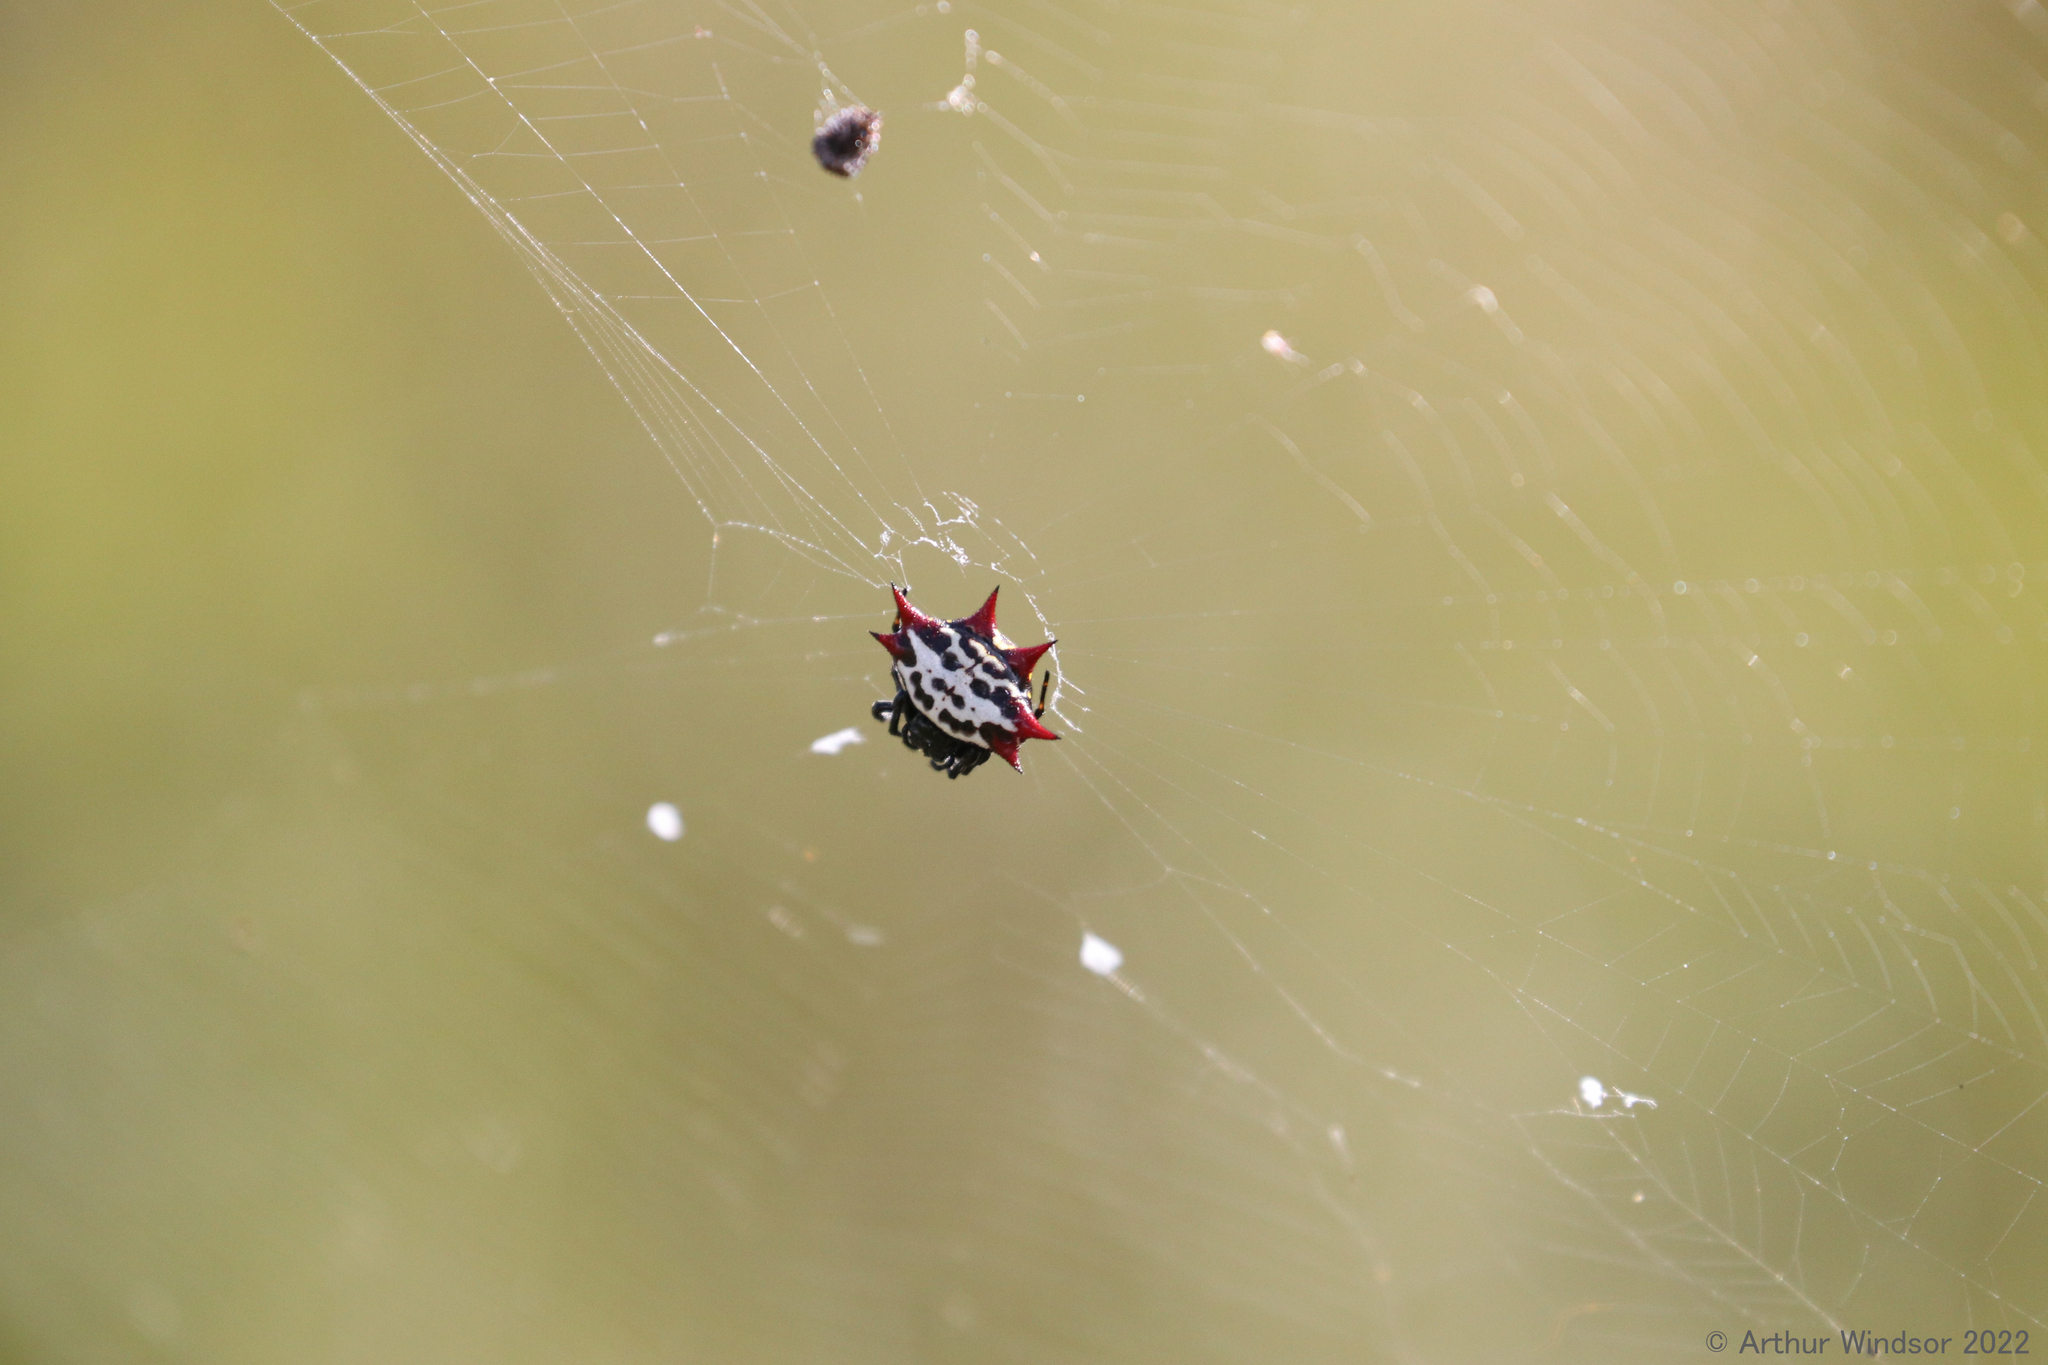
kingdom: Animalia
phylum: Arthropoda
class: Arachnida
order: Araneae
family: Araneidae
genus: Gasteracantha
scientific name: Gasteracantha cancriformis
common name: Orb weavers
